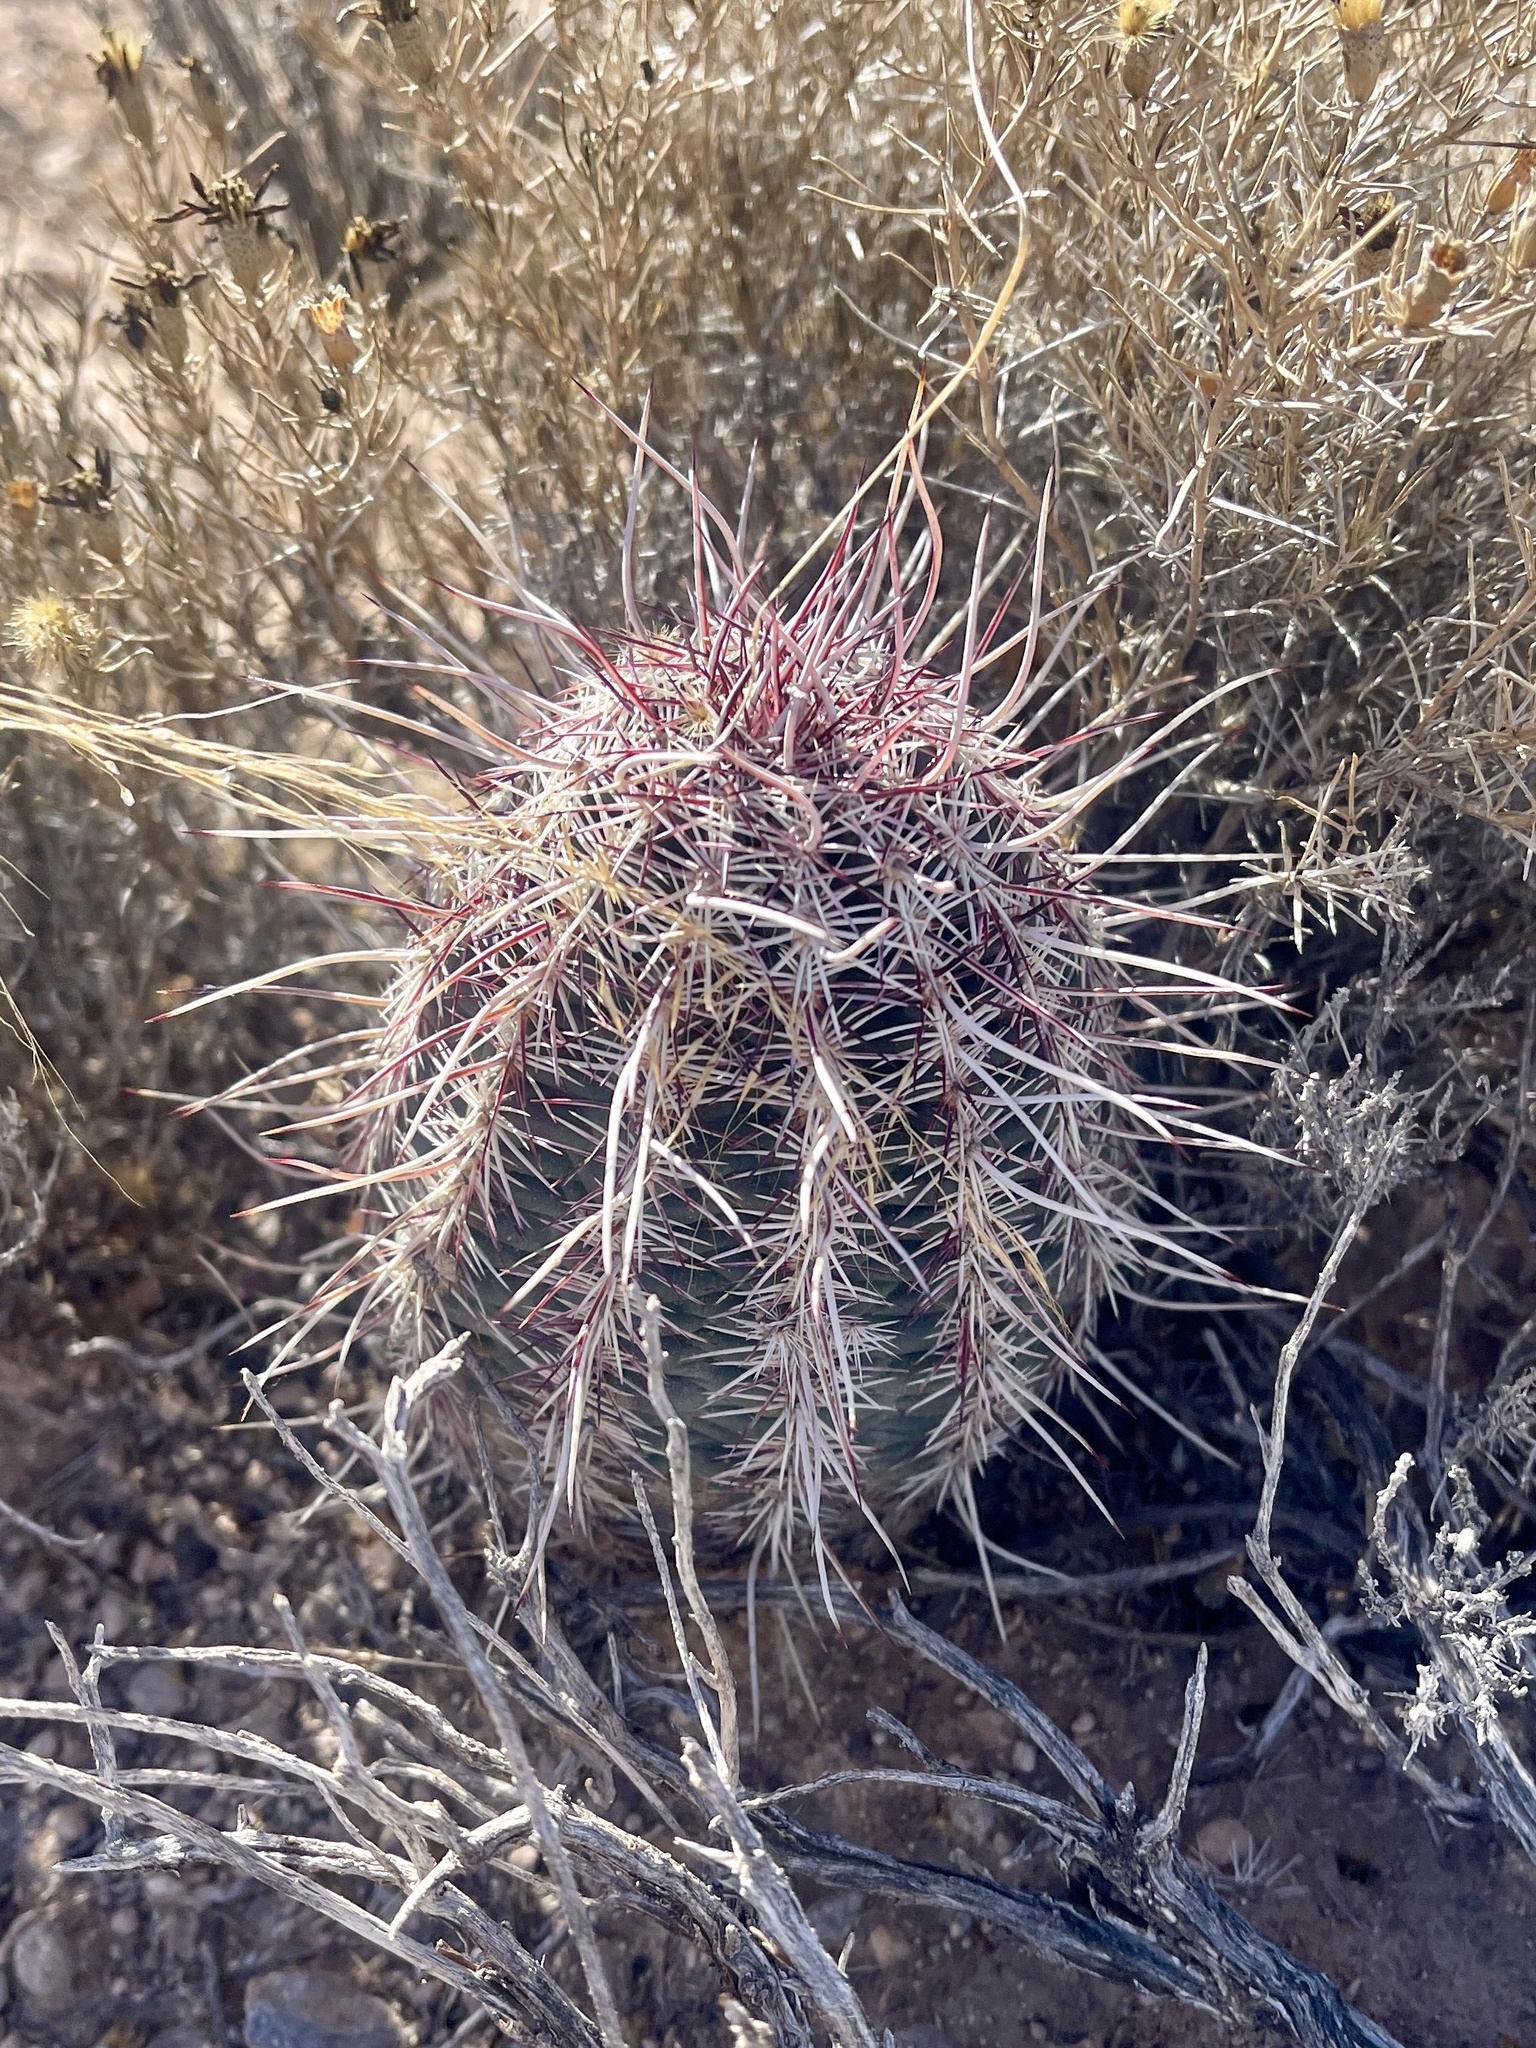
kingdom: Plantae
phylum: Tracheophyta
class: Magnoliopsida
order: Caryophyllales
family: Cactaceae
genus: Echinocereus
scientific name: Echinocereus viridiflorus
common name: Nylon hedgehog cactus
